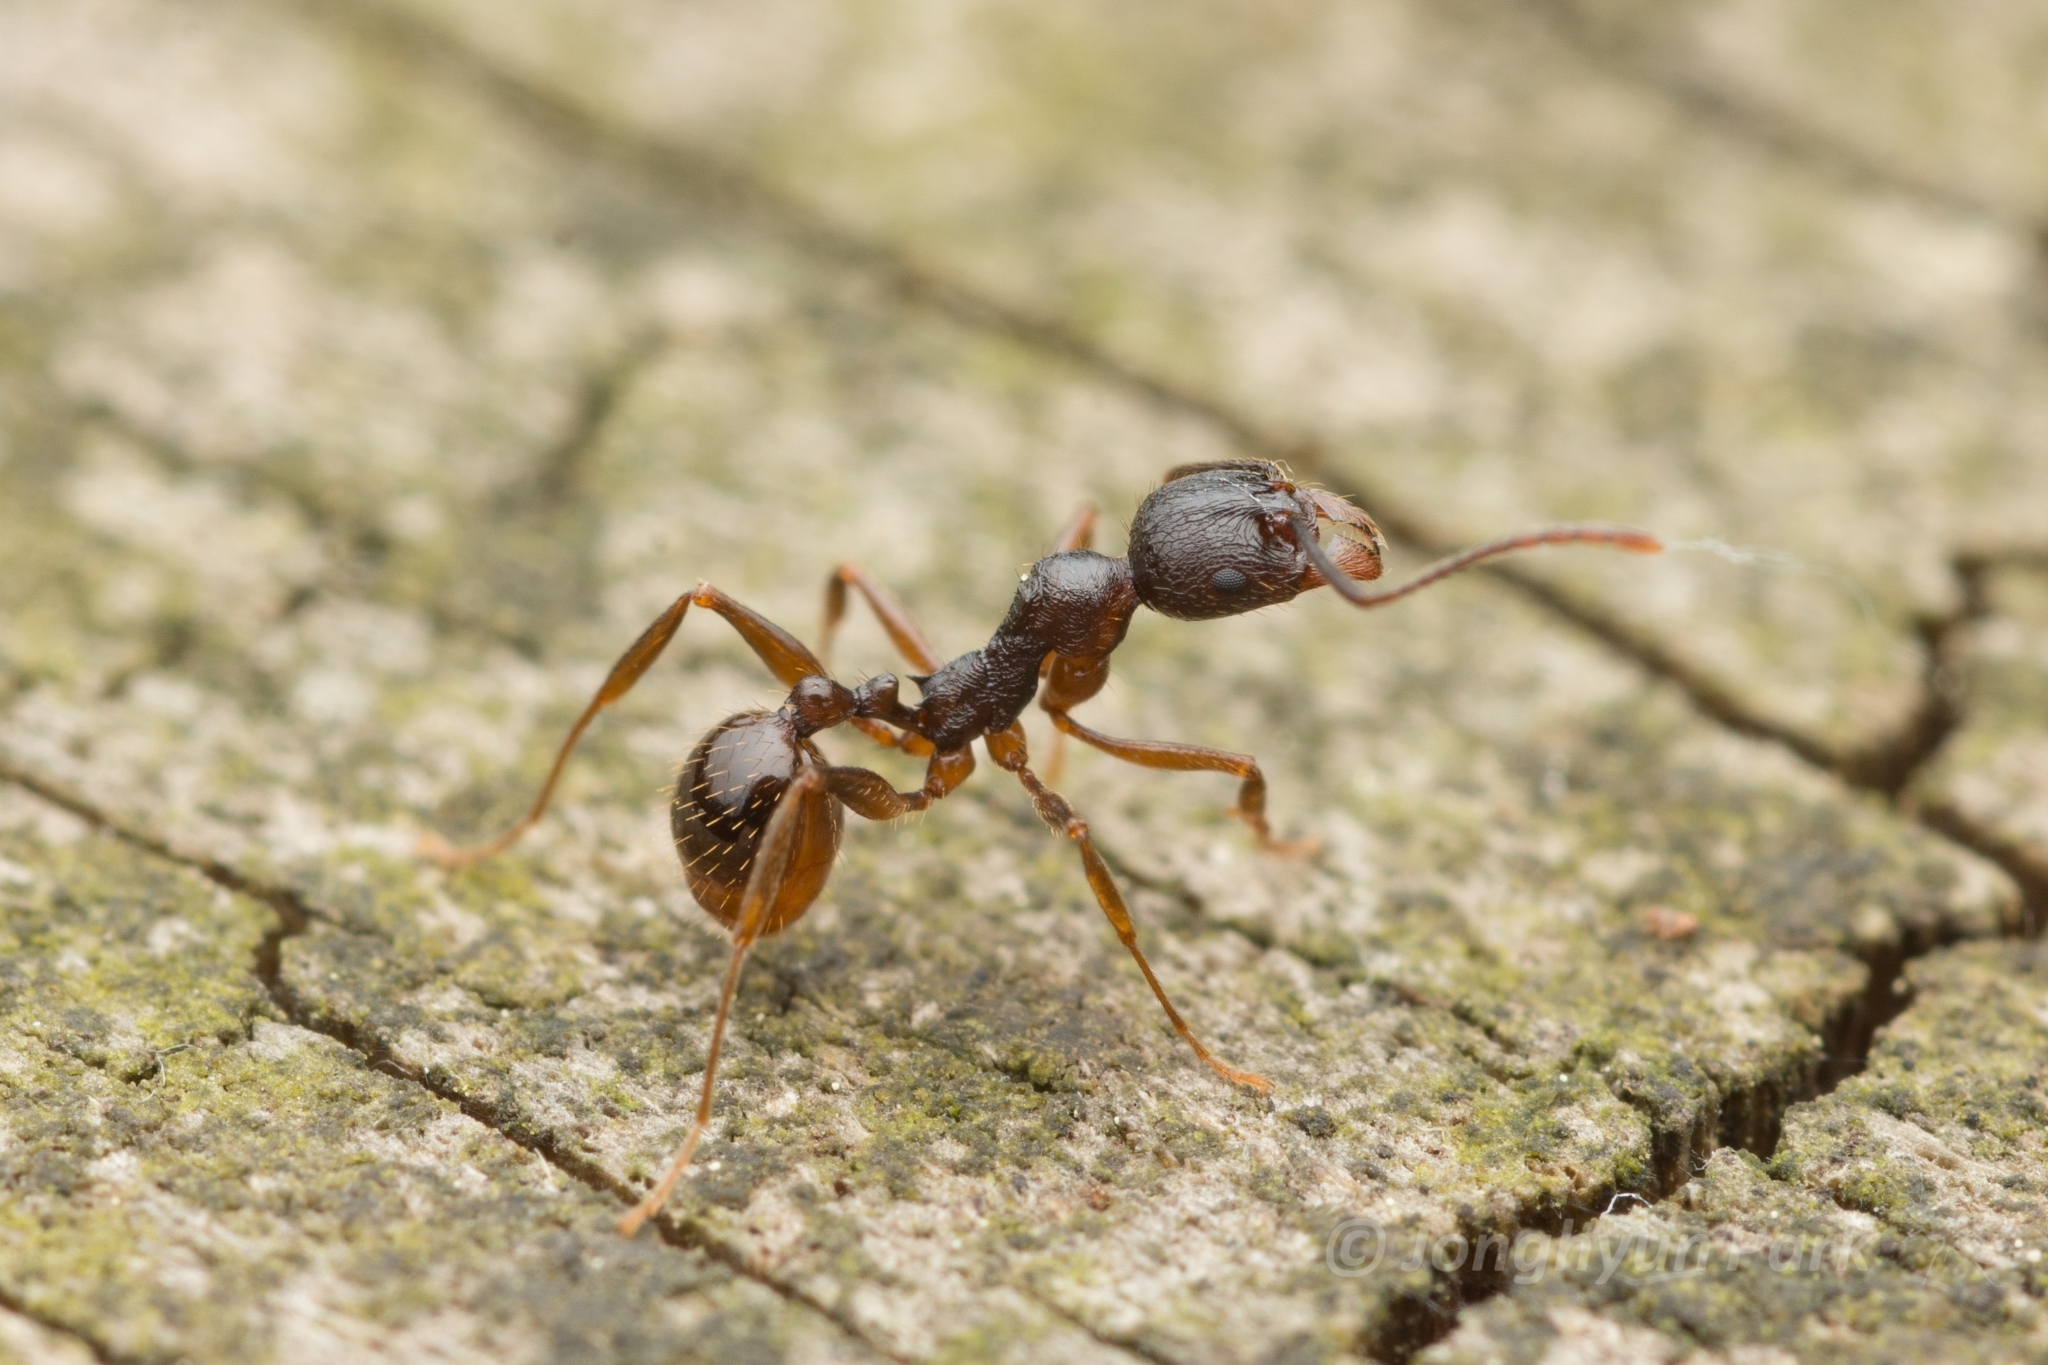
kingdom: Animalia
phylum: Arthropoda
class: Insecta
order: Hymenoptera
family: Formicidae
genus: Aphaenogaster
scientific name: Aphaenogaster japonica
